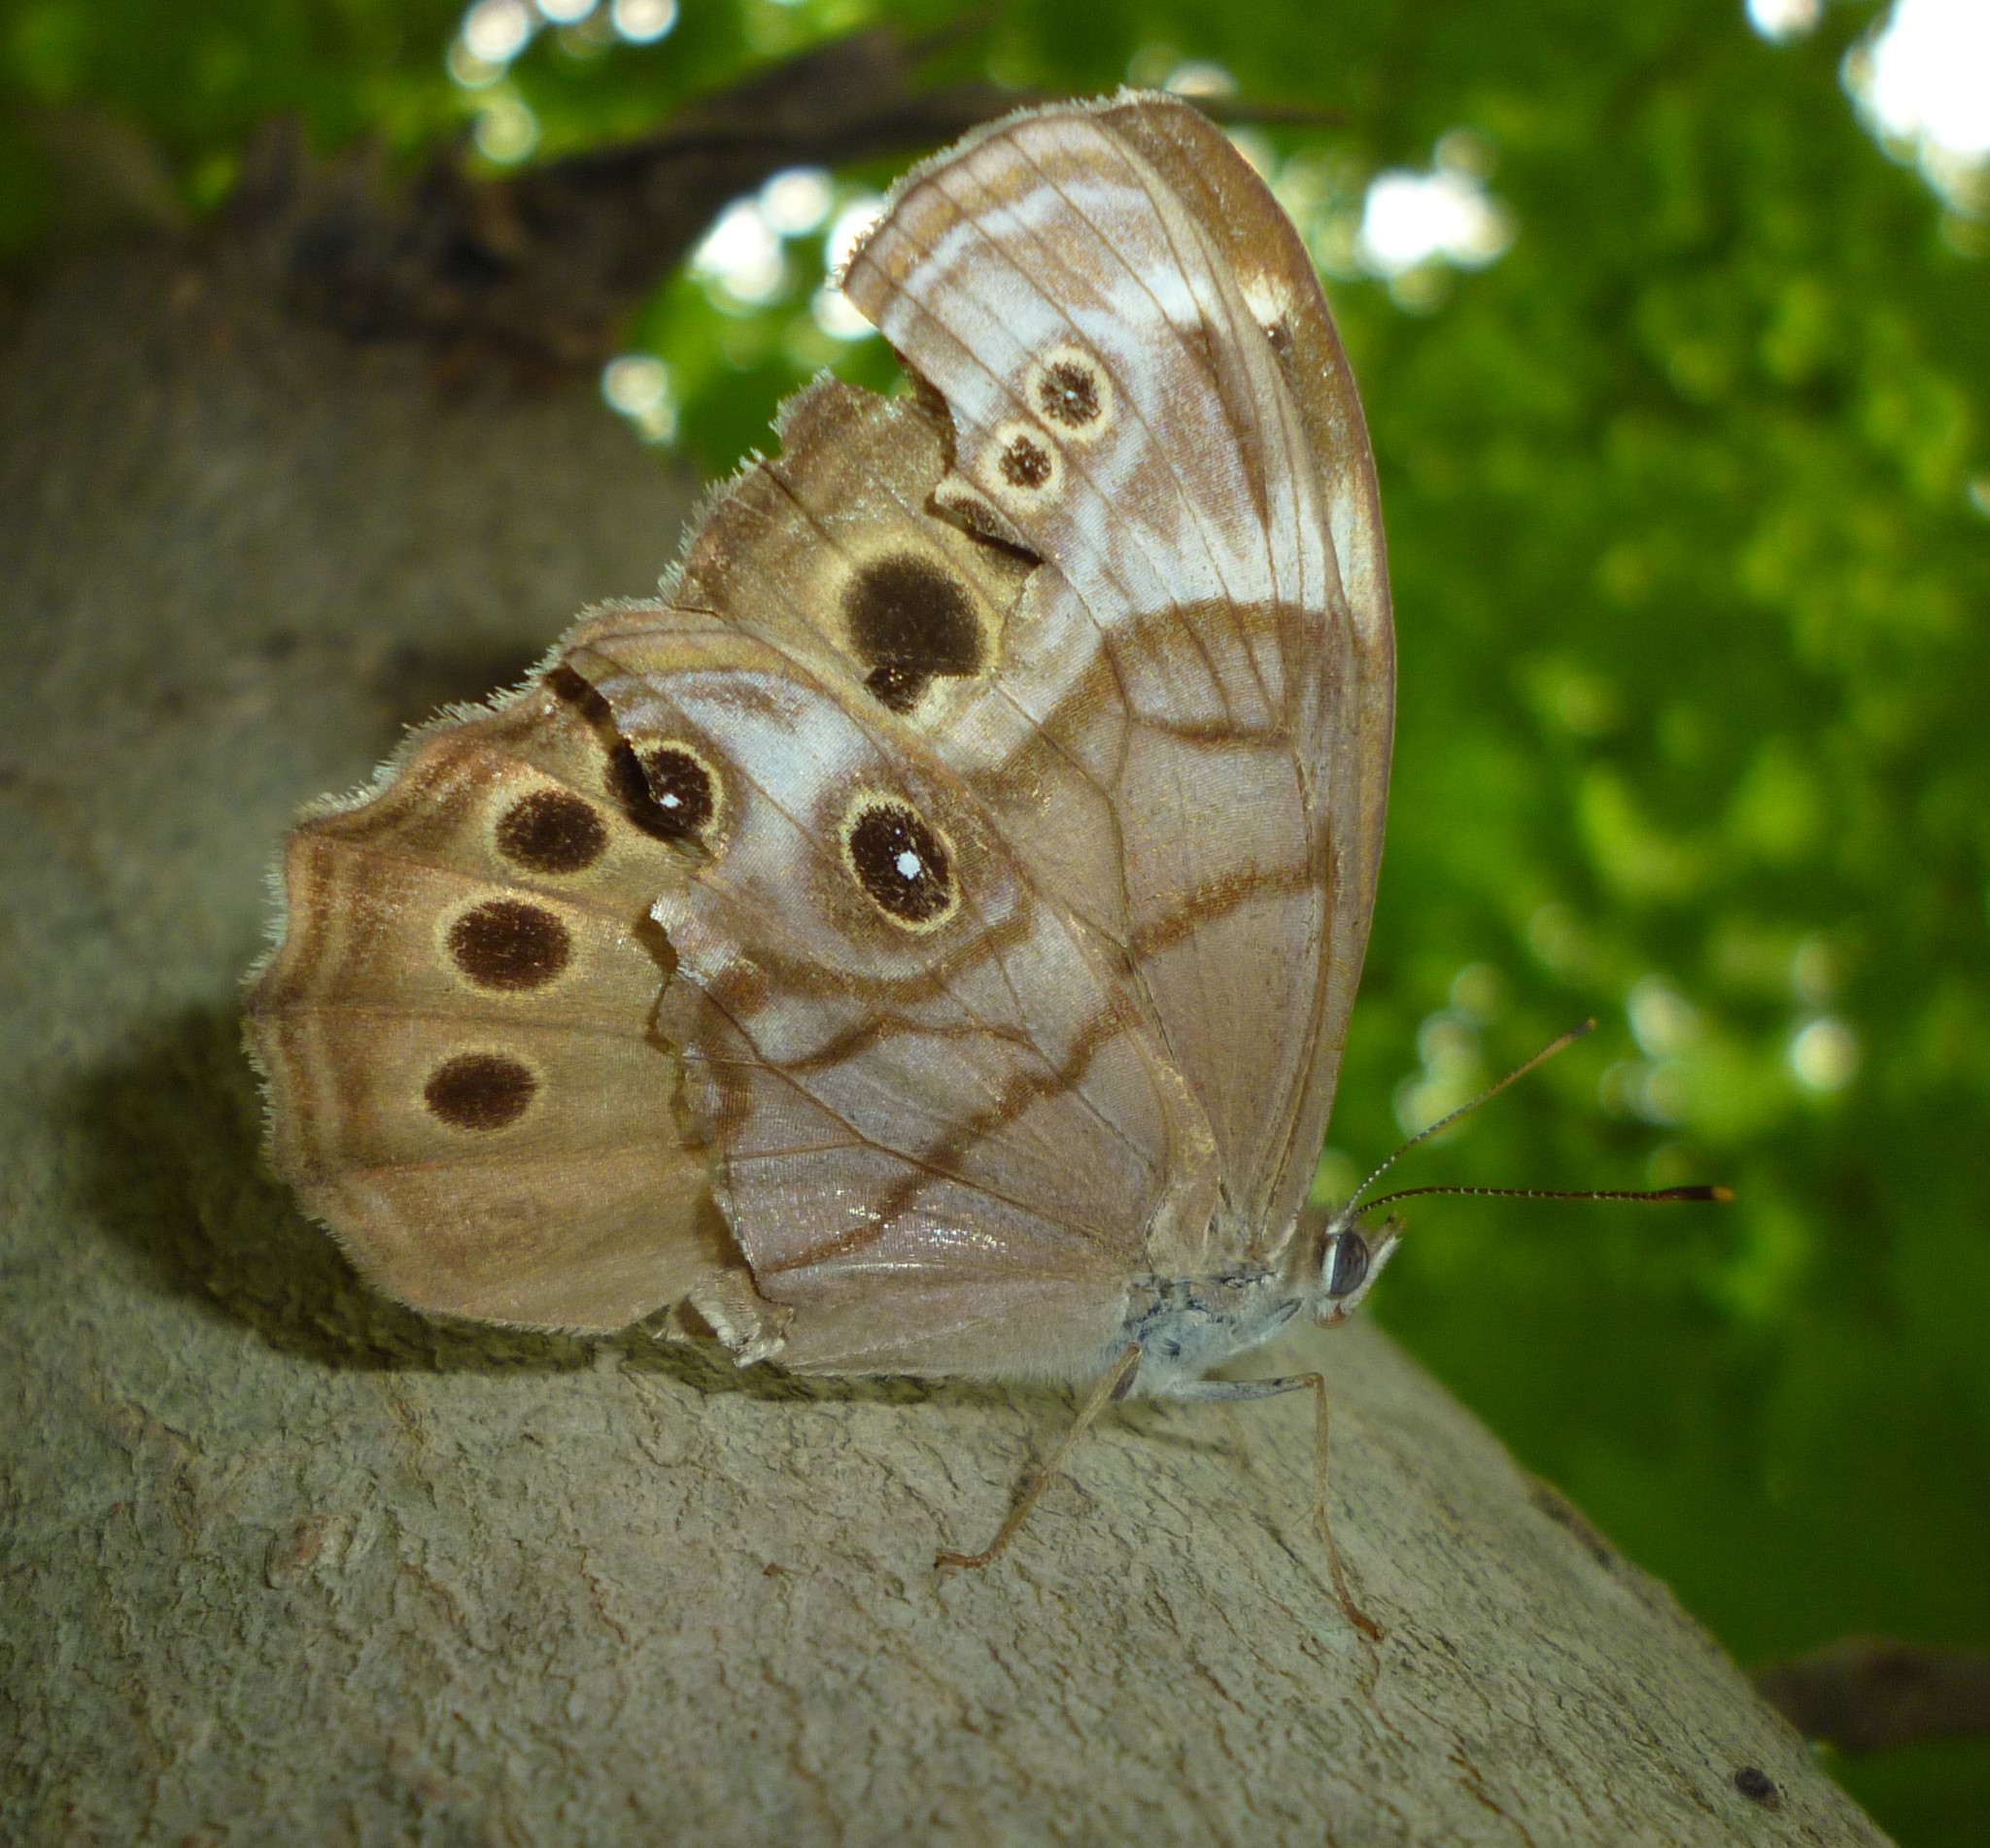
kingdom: Animalia
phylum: Arthropoda
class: Insecta
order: Lepidoptera
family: Nymphalidae
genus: Lethe
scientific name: Lethe anthedon
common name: Northern pearly-eye
